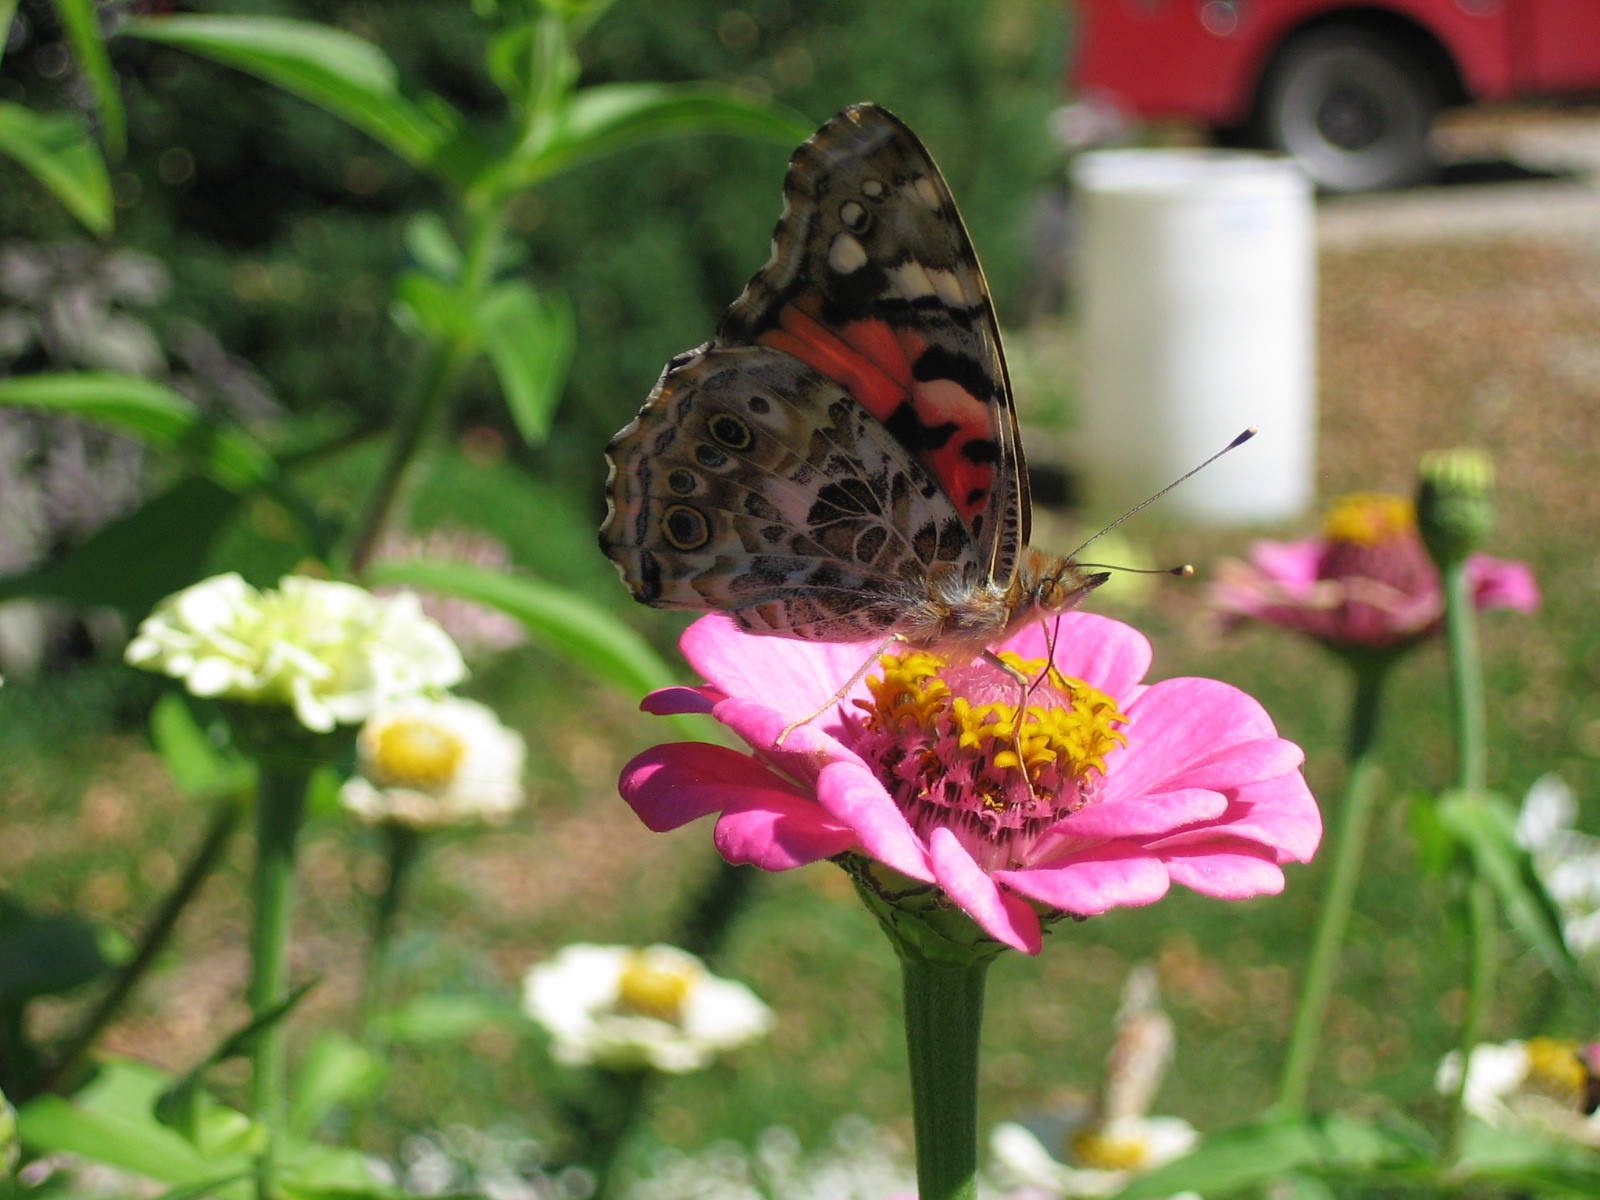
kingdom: Animalia
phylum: Arthropoda
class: Insecta
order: Lepidoptera
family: Nymphalidae
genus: Vanessa
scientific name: Vanessa cardui
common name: Painted lady
